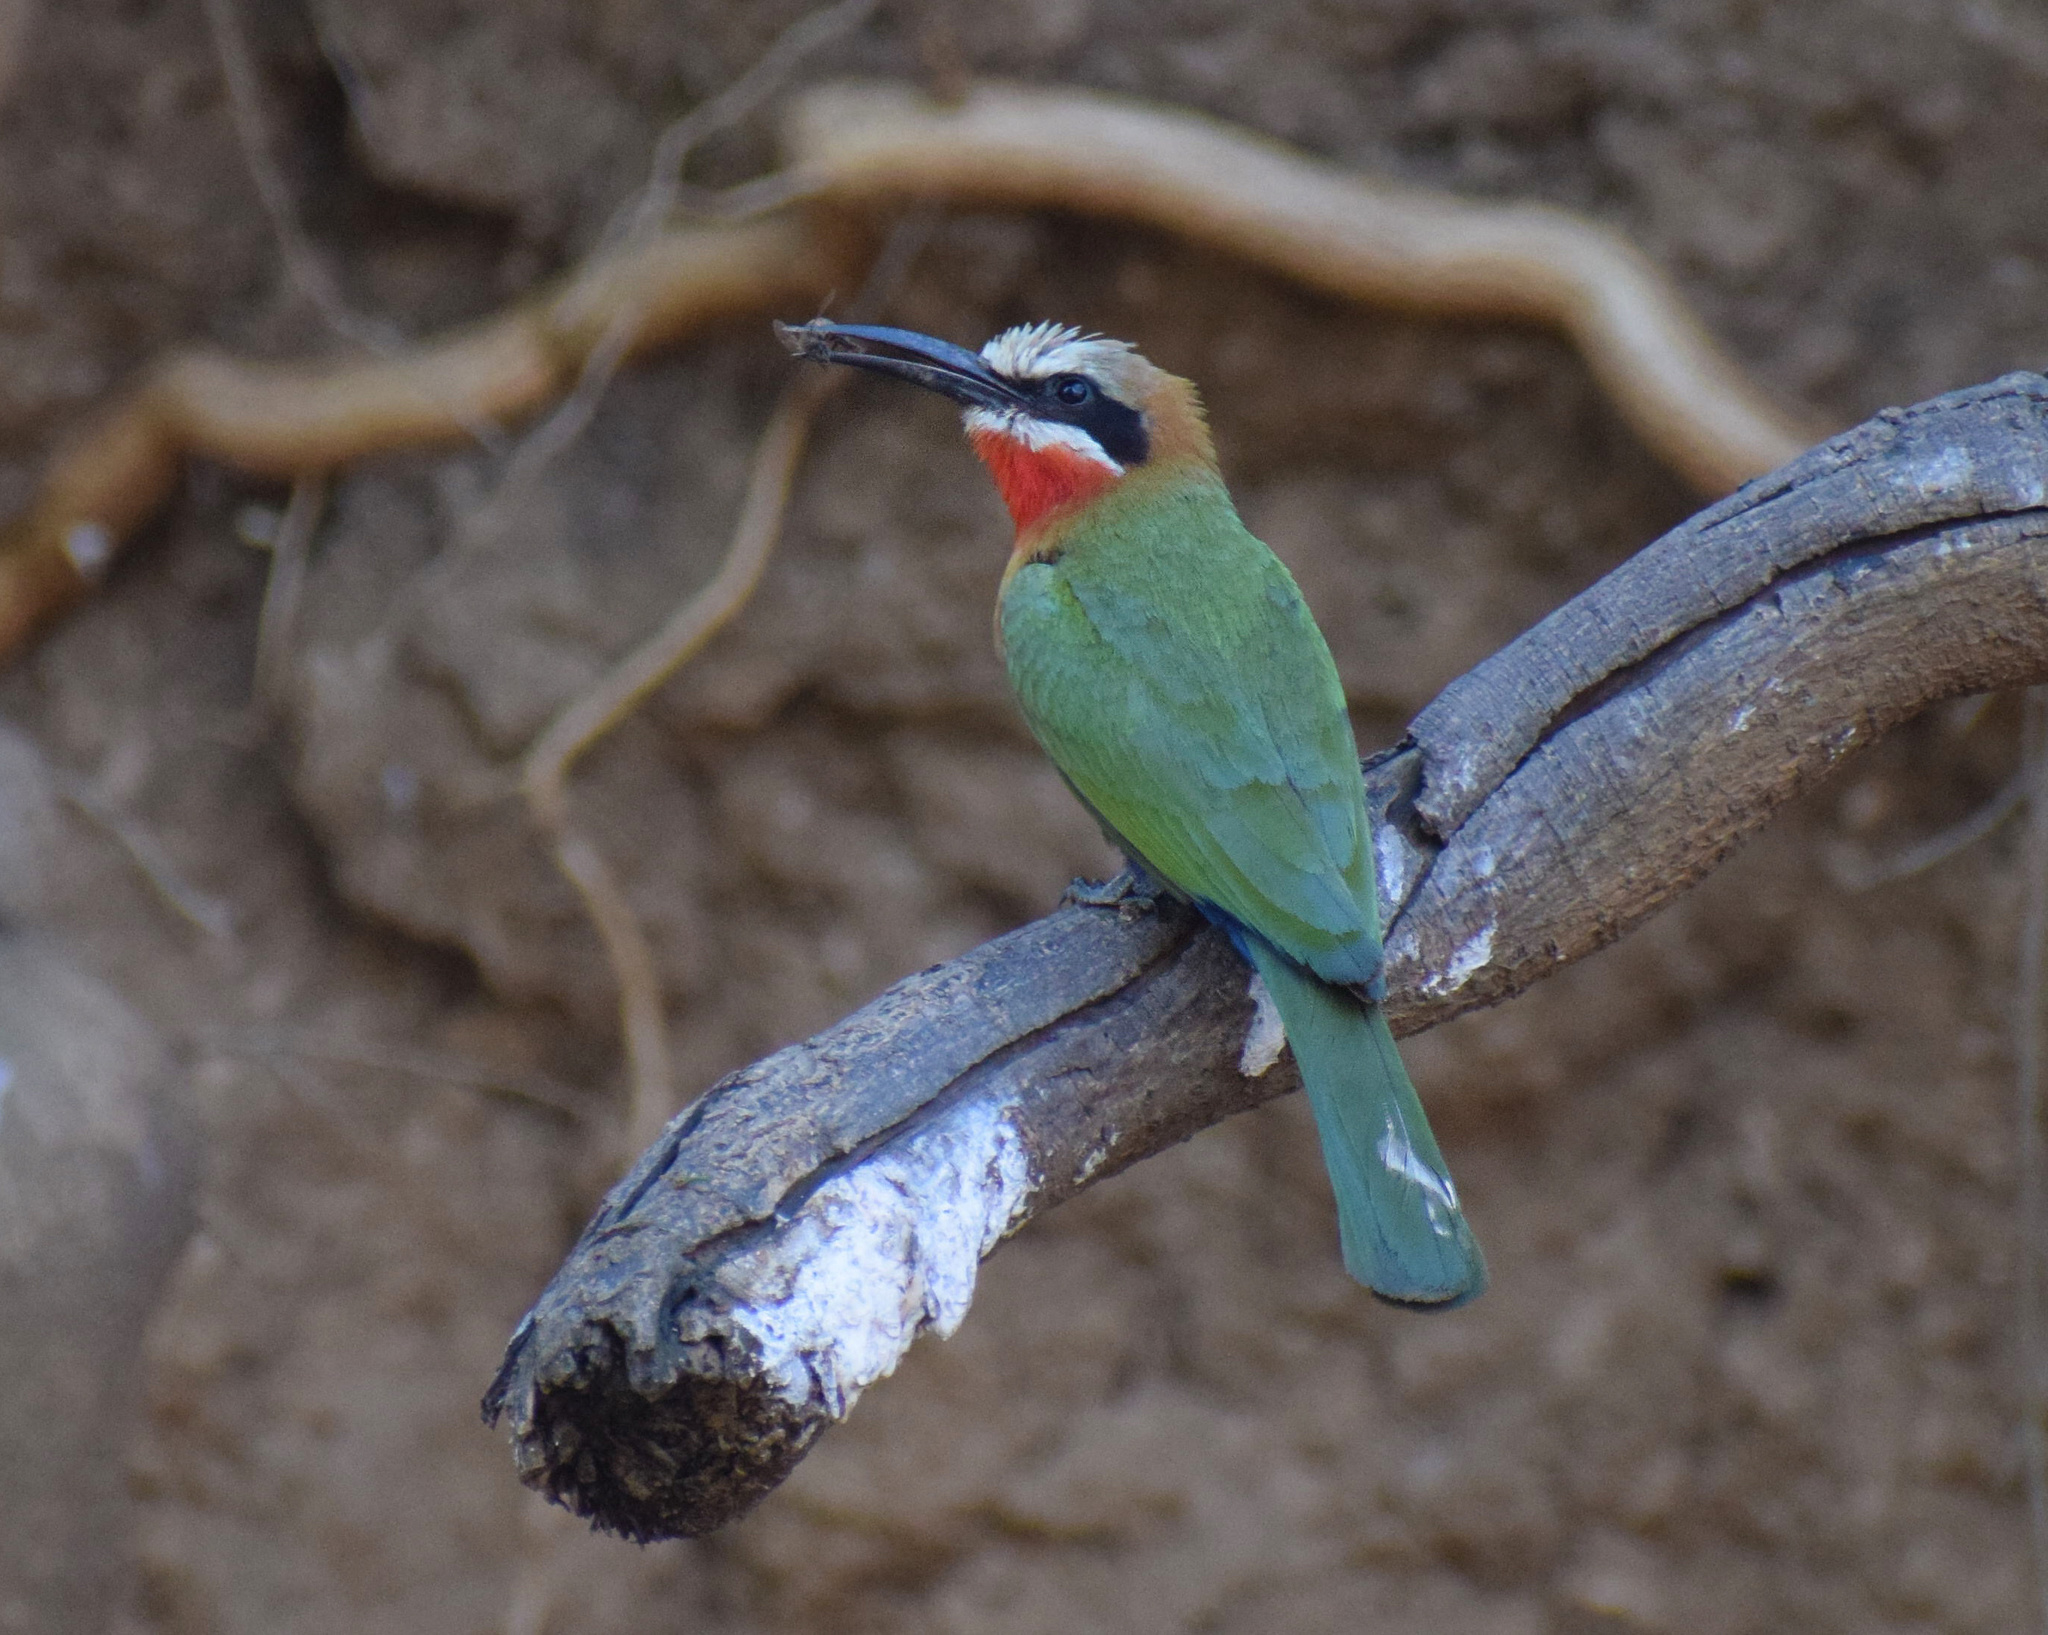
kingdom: Animalia
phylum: Chordata
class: Aves
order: Coraciiformes
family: Meropidae
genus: Merops
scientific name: Merops bullockoides
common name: White-fronted bee-eater
